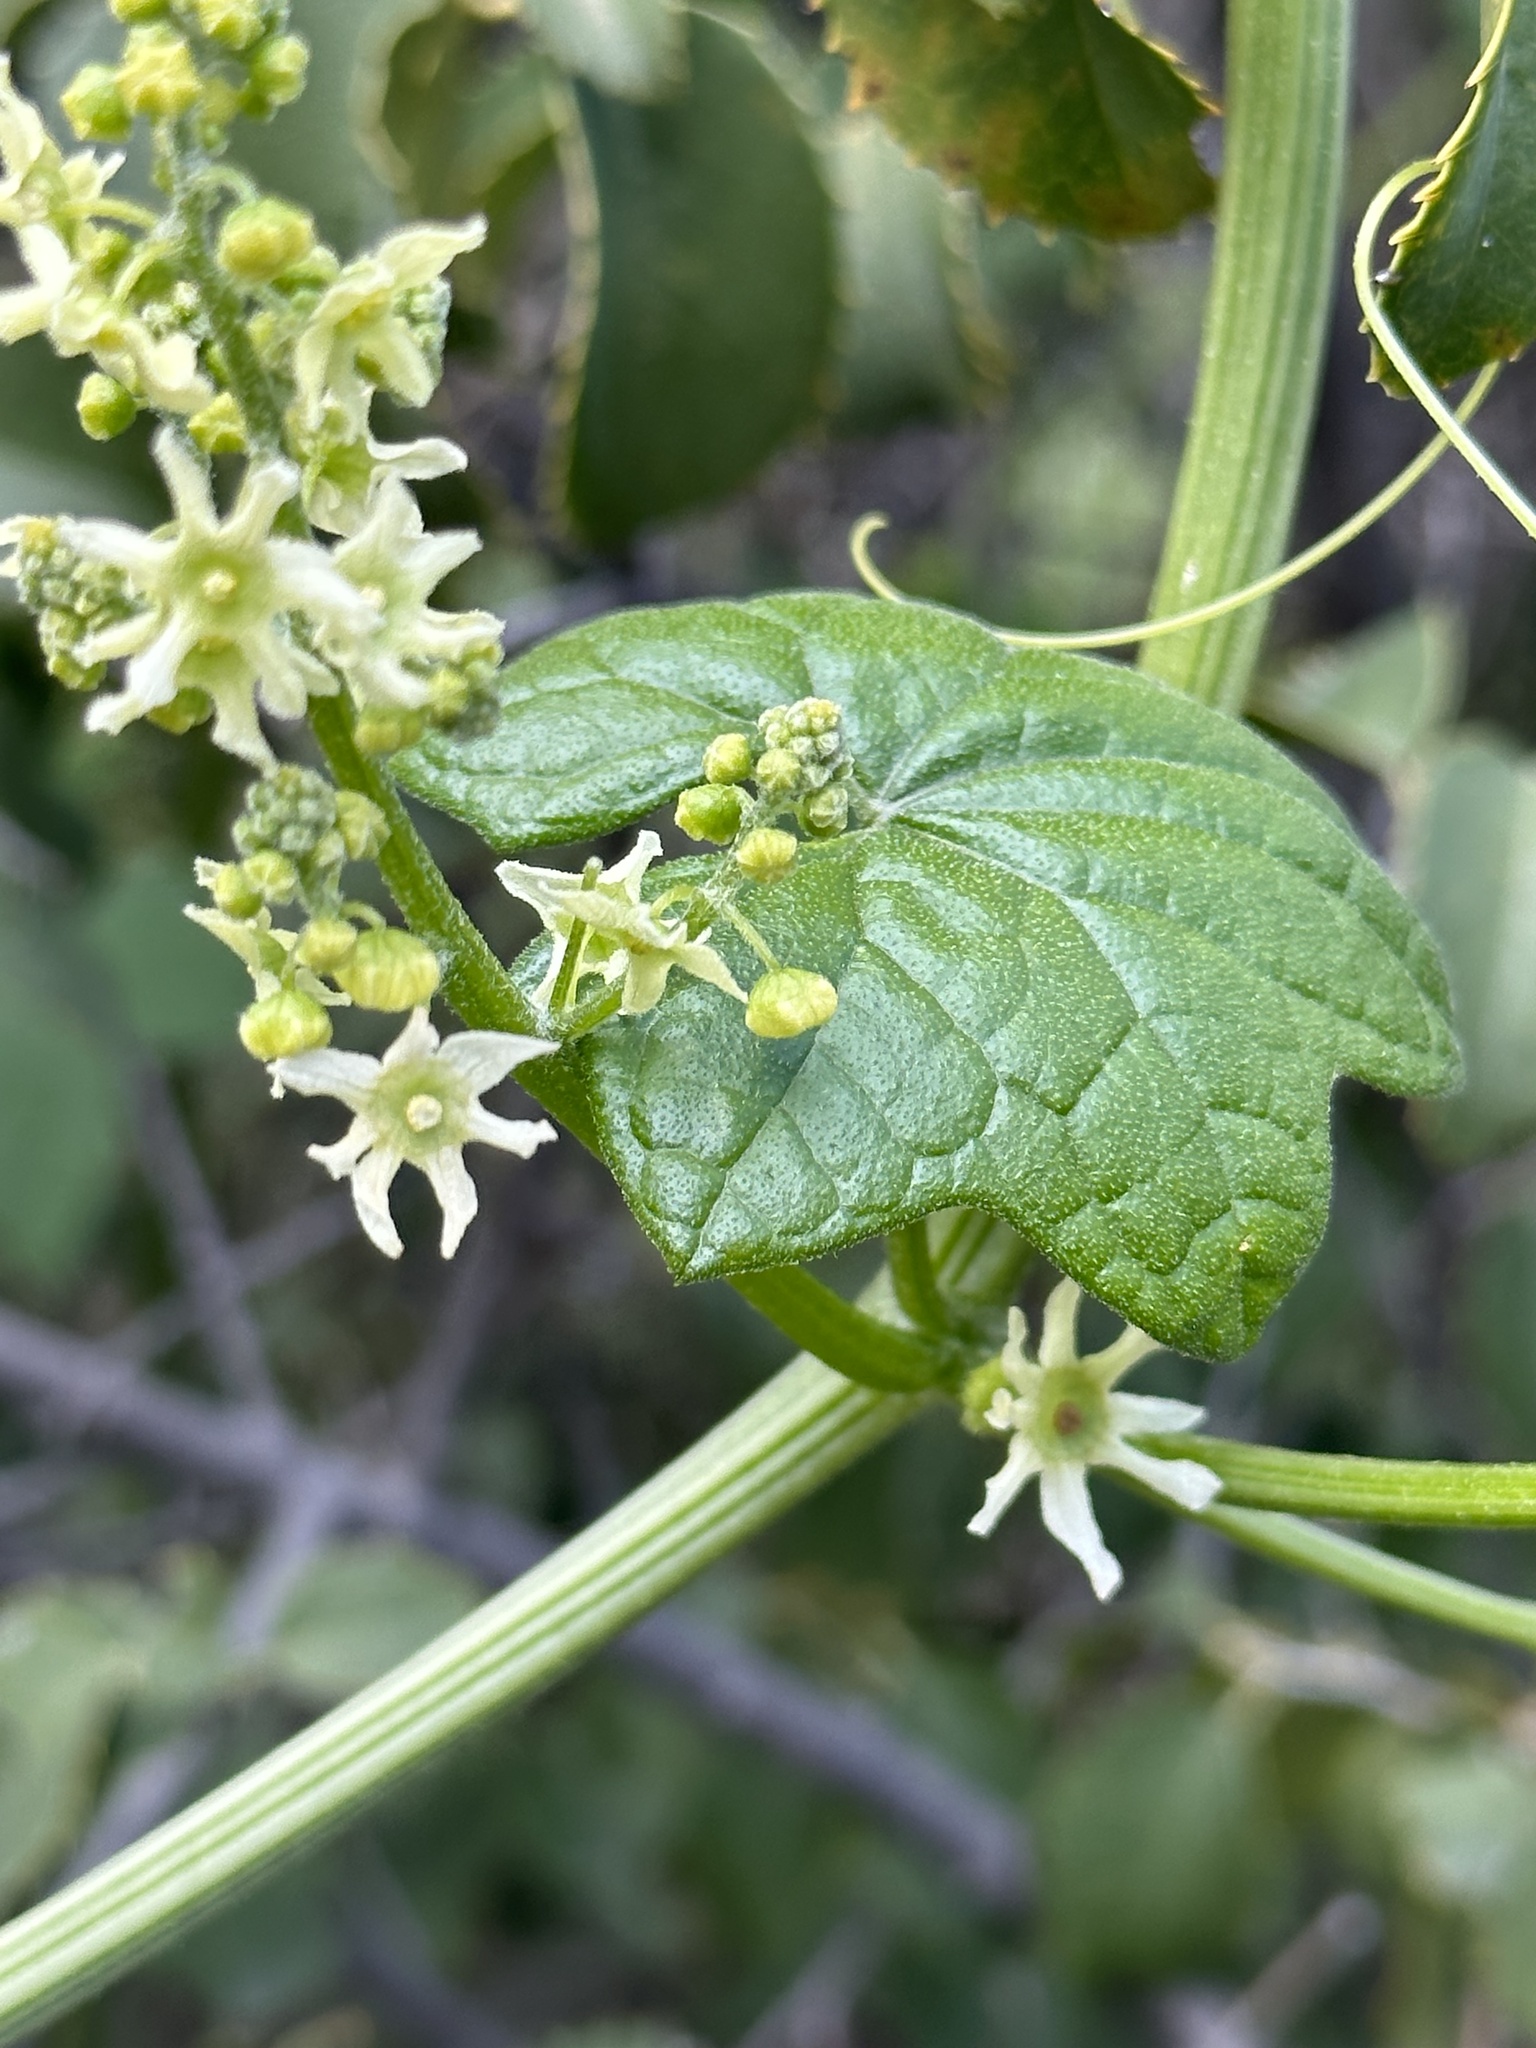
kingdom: Plantae
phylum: Tracheophyta
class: Magnoliopsida
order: Cucurbitales
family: Cucurbitaceae
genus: Marah
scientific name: Marah fabacea
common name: California manroot
